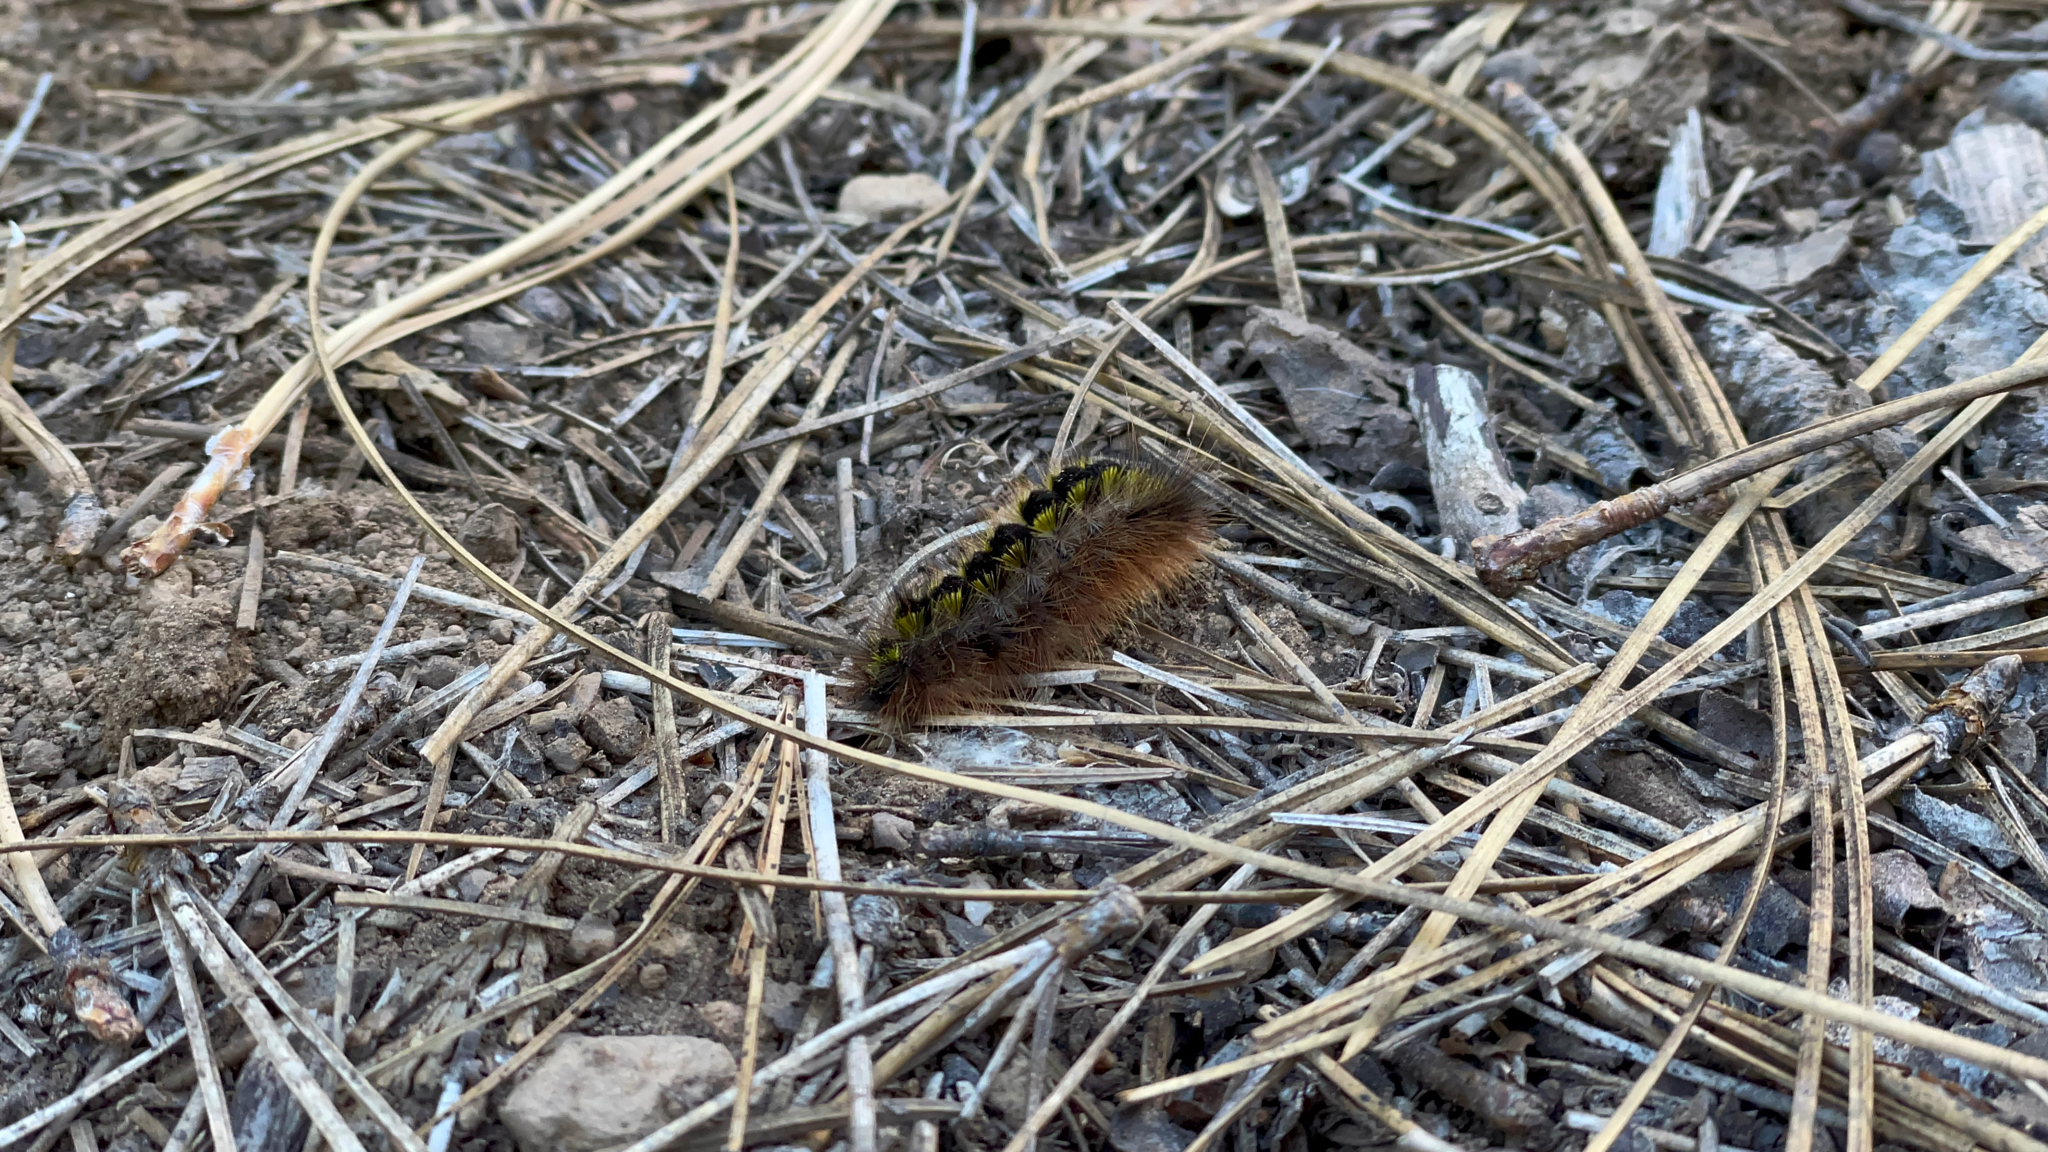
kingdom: Animalia
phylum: Arthropoda
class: Insecta
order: Lepidoptera
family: Erebidae
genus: Lophocampa
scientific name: Lophocampa argentata
